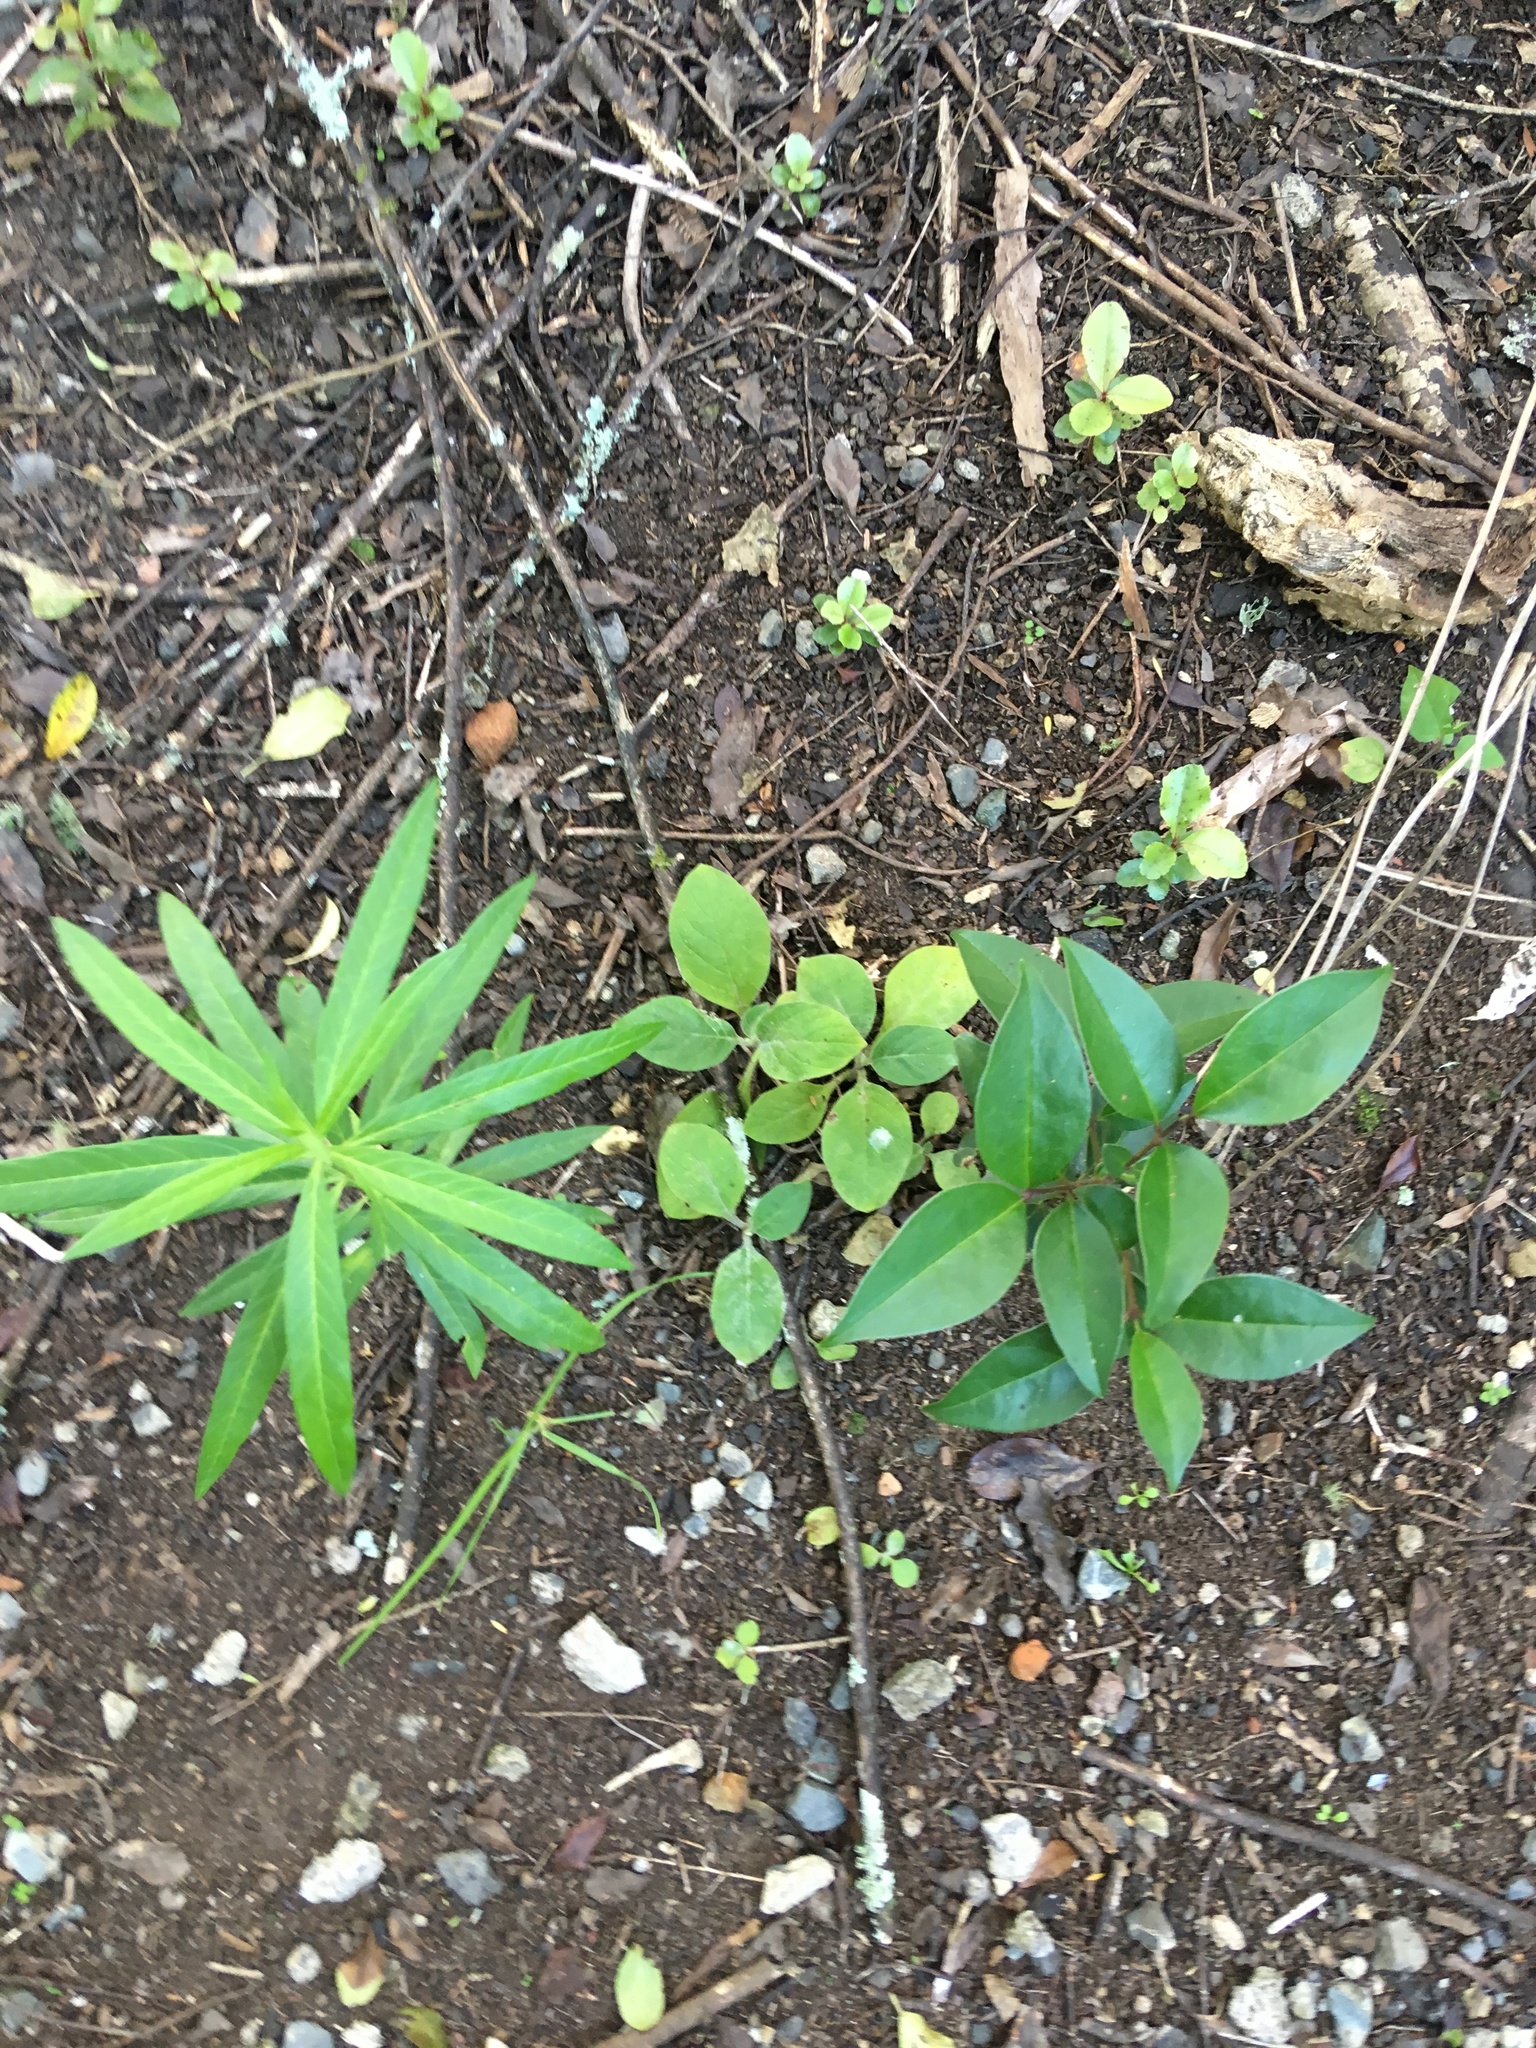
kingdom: Plantae
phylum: Tracheophyta
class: Magnoliopsida
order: Solanales
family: Solanaceae
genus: Solanum
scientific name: Solanum mauritianum
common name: Earleaf nightshade
